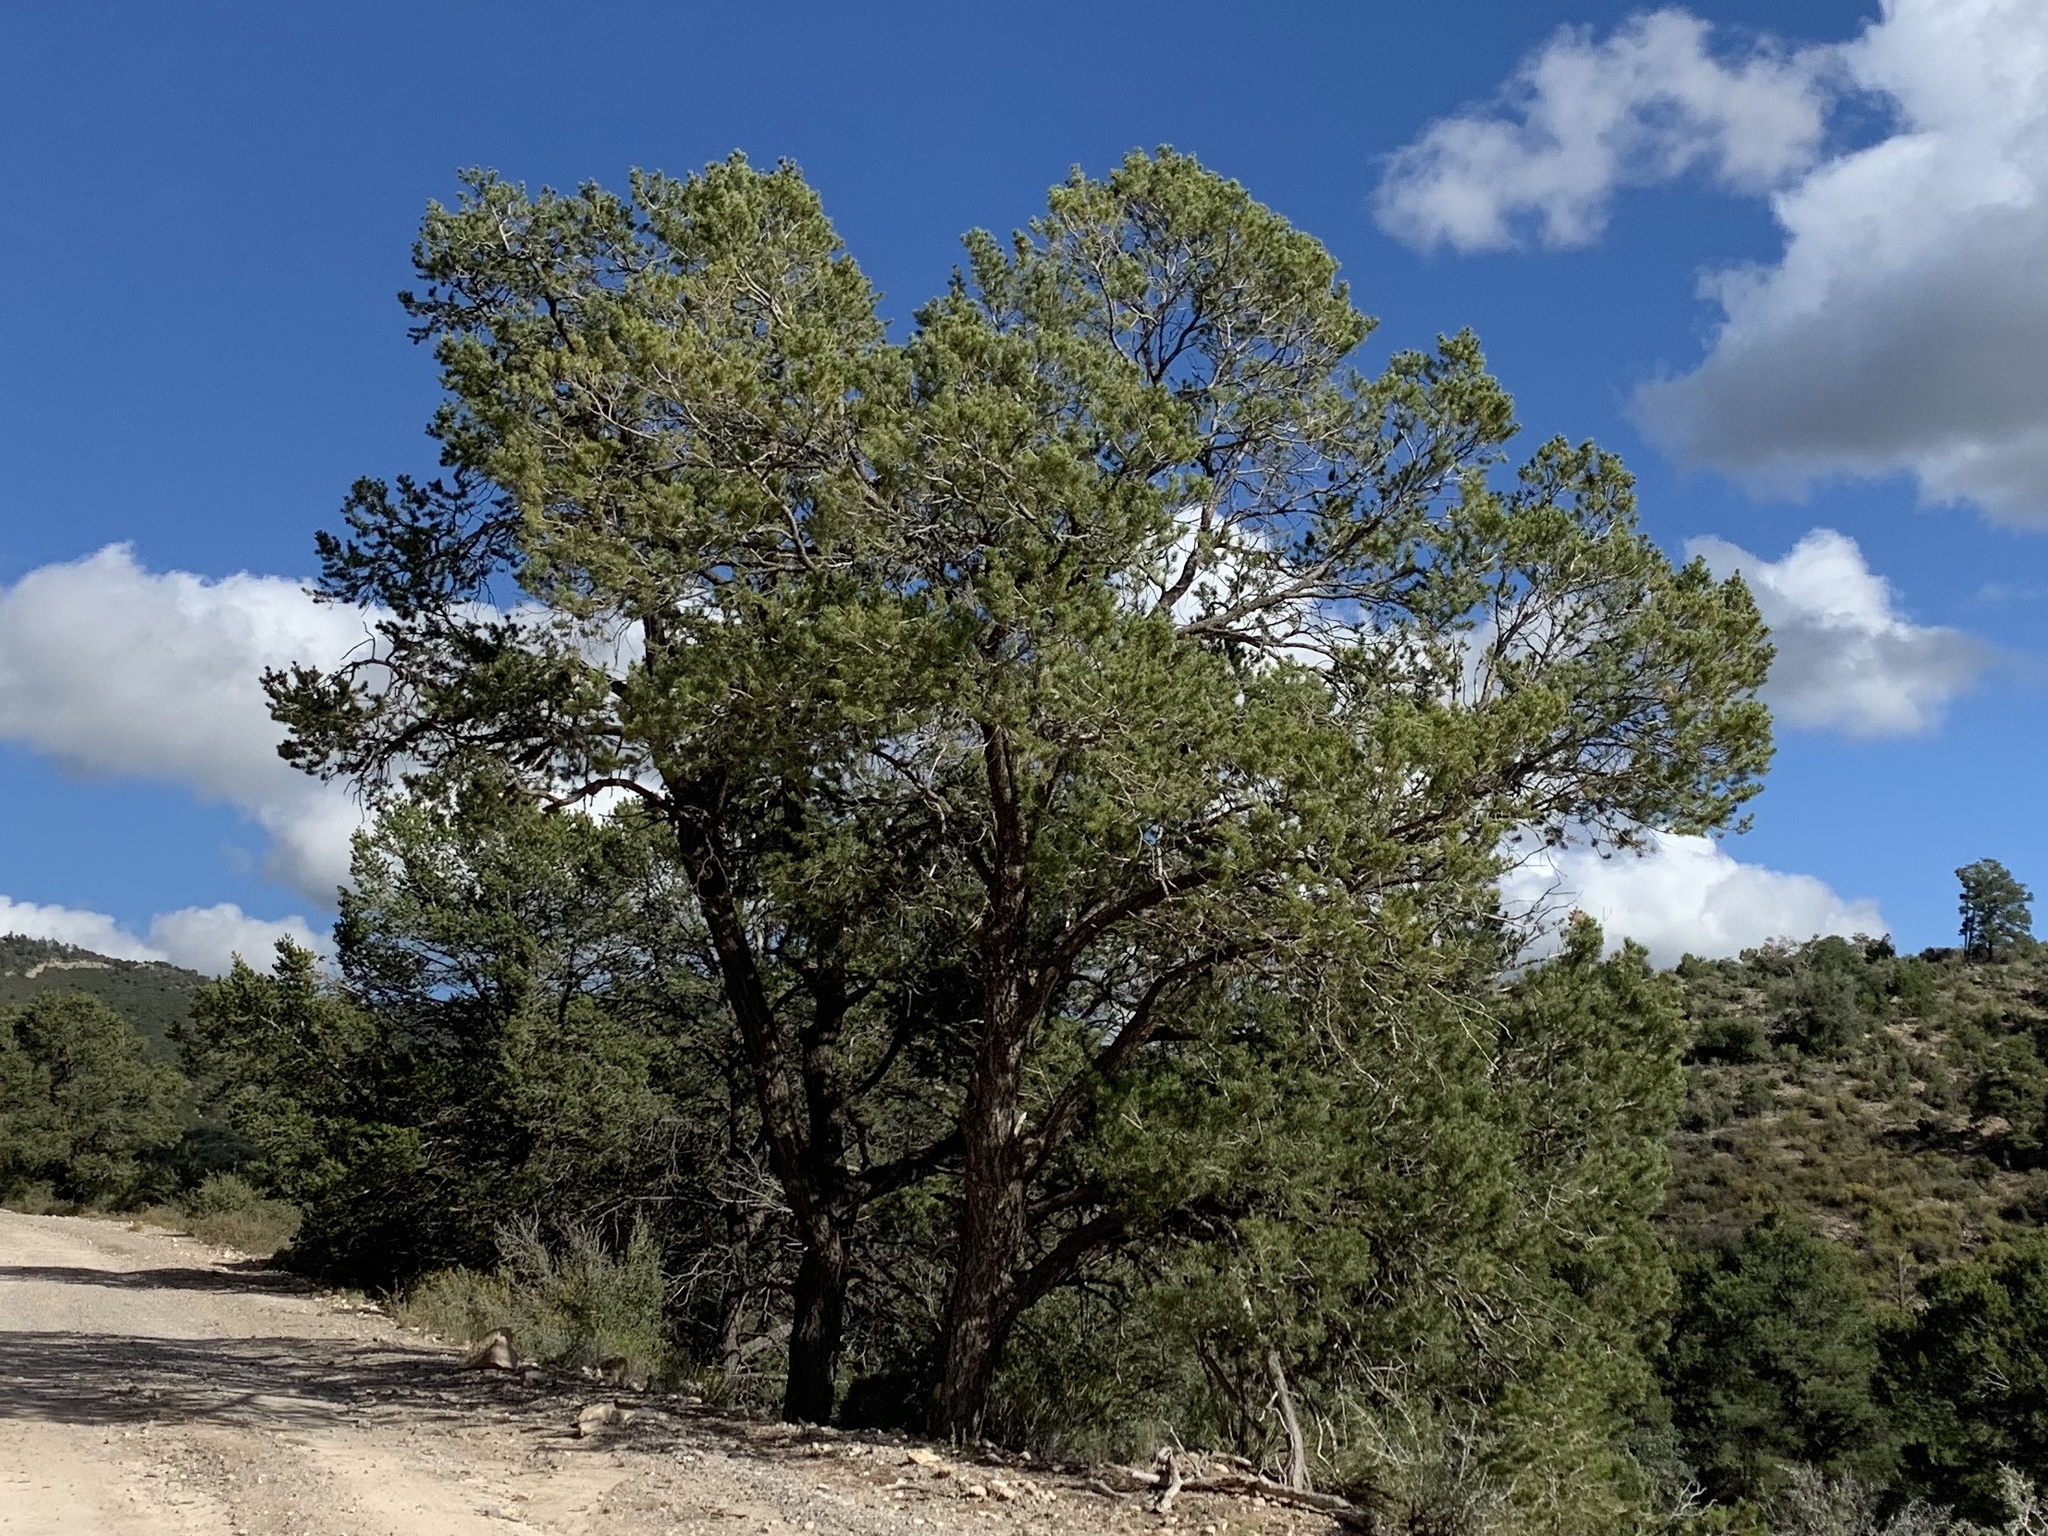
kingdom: Plantae
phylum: Tracheophyta
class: Pinopsida
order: Pinales
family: Pinaceae
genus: Pinus
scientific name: Pinus edulis
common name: Colorado pinyon
